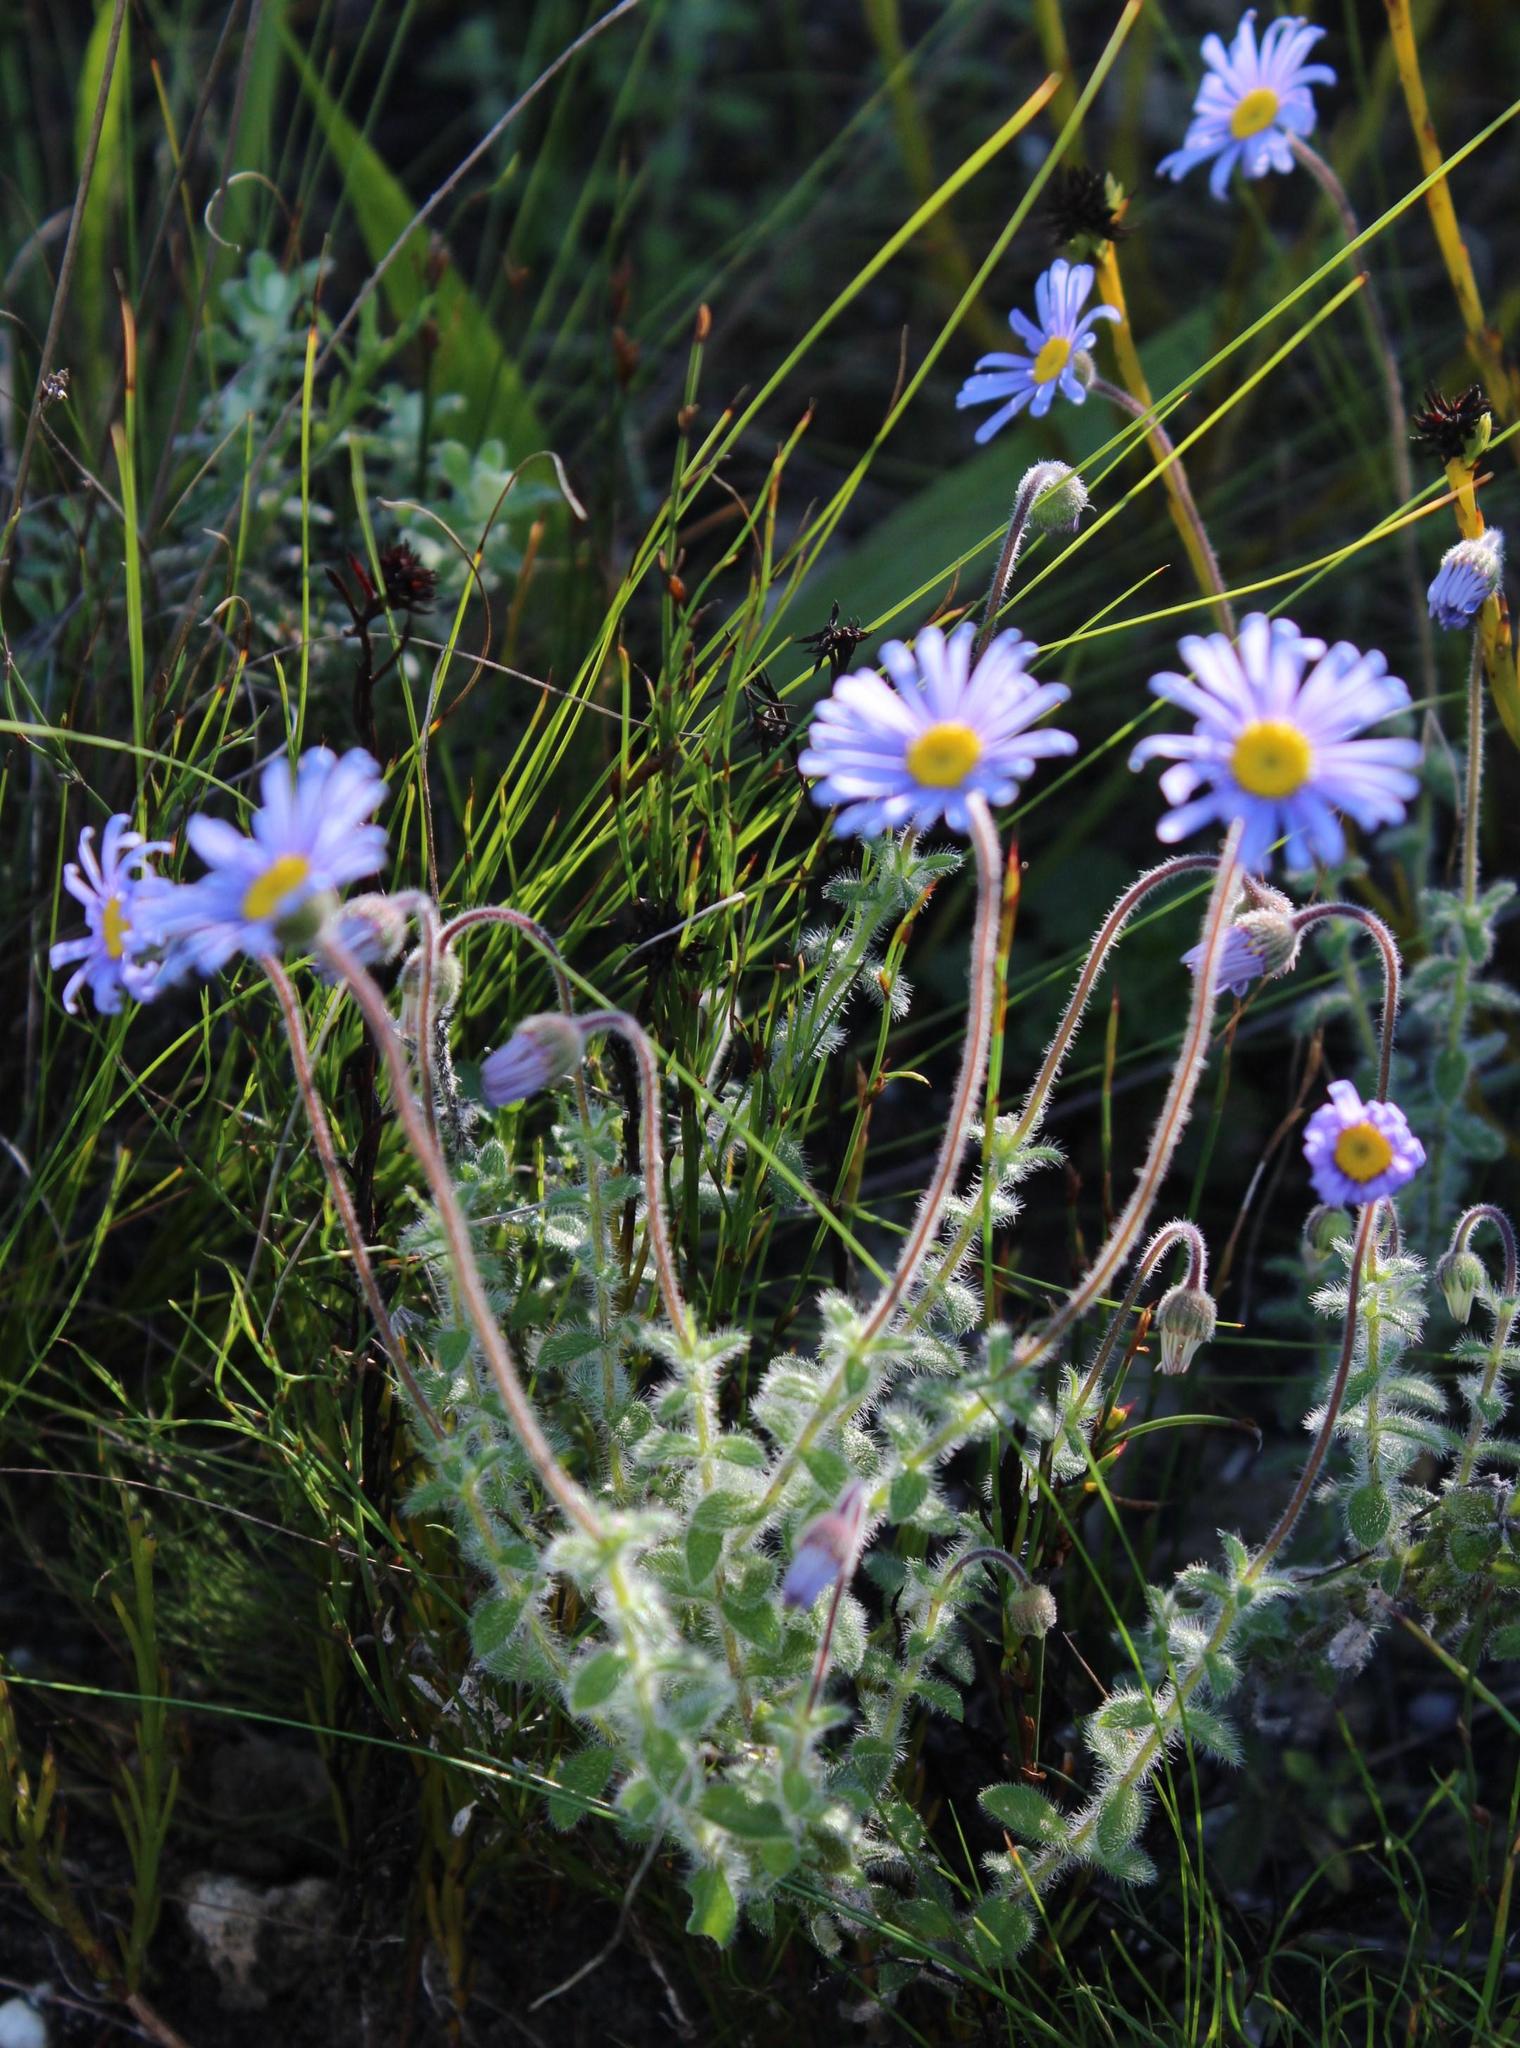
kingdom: Plantae
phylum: Tracheophyta
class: Magnoliopsida
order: Asterales
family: Asteraceae
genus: Felicia
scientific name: Felicia amoena
